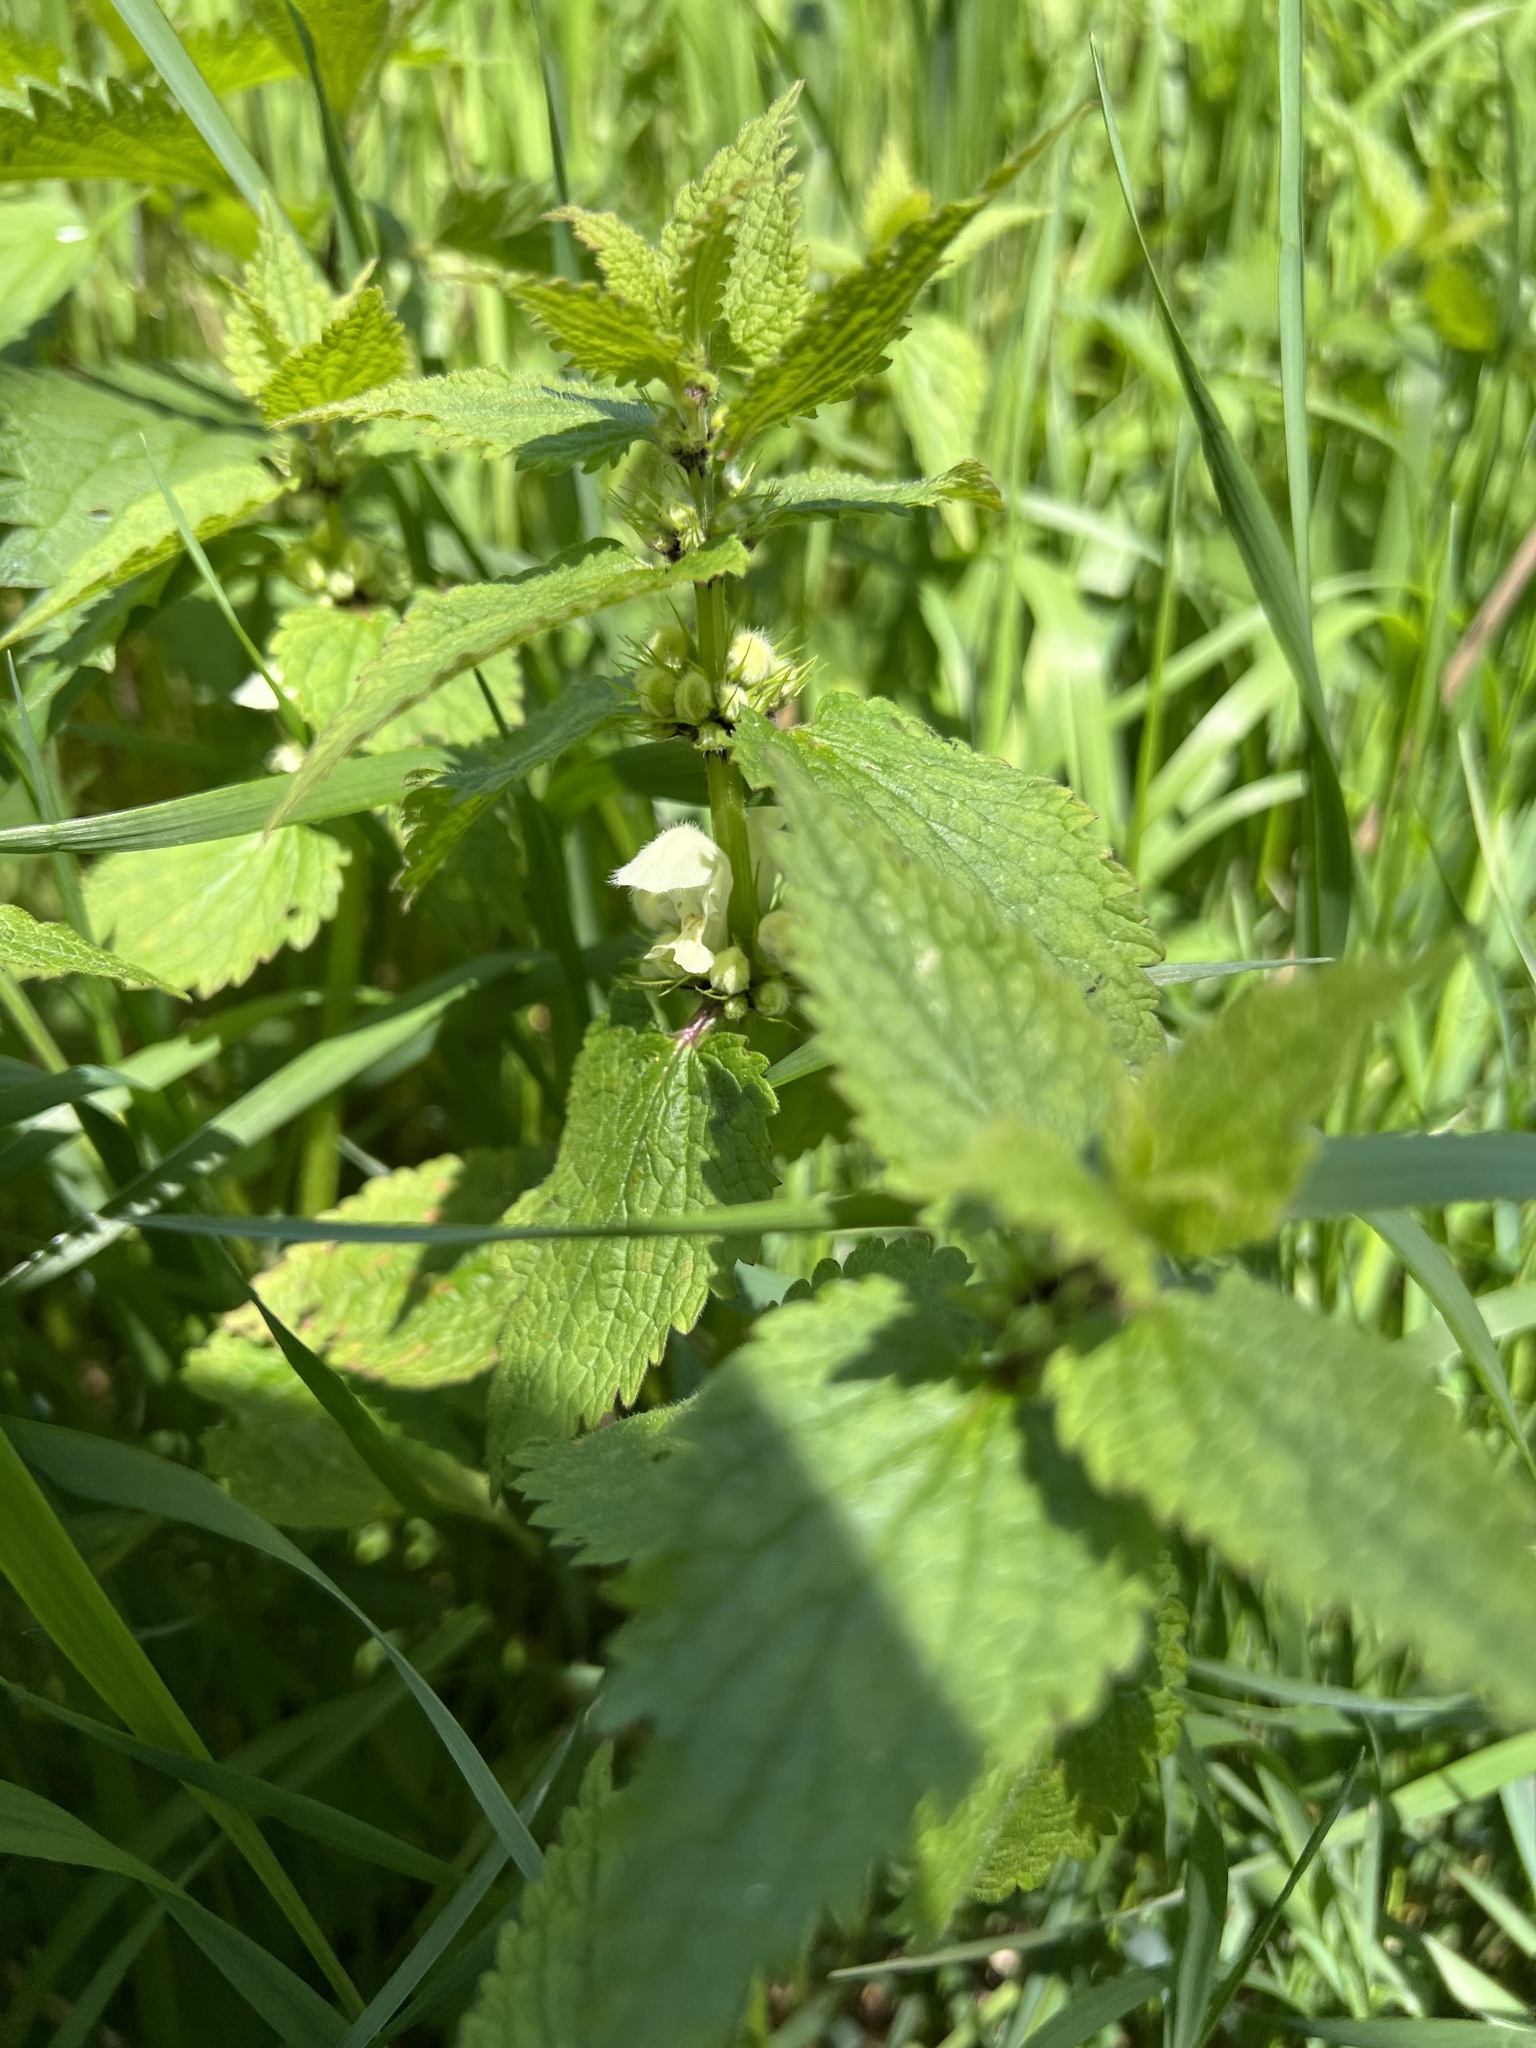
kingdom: Plantae
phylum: Tracheophyta
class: Magnoliopsida
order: Lamiales
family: Lamiaceae
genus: Lamium
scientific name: Lamium album
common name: White dead-nettle
